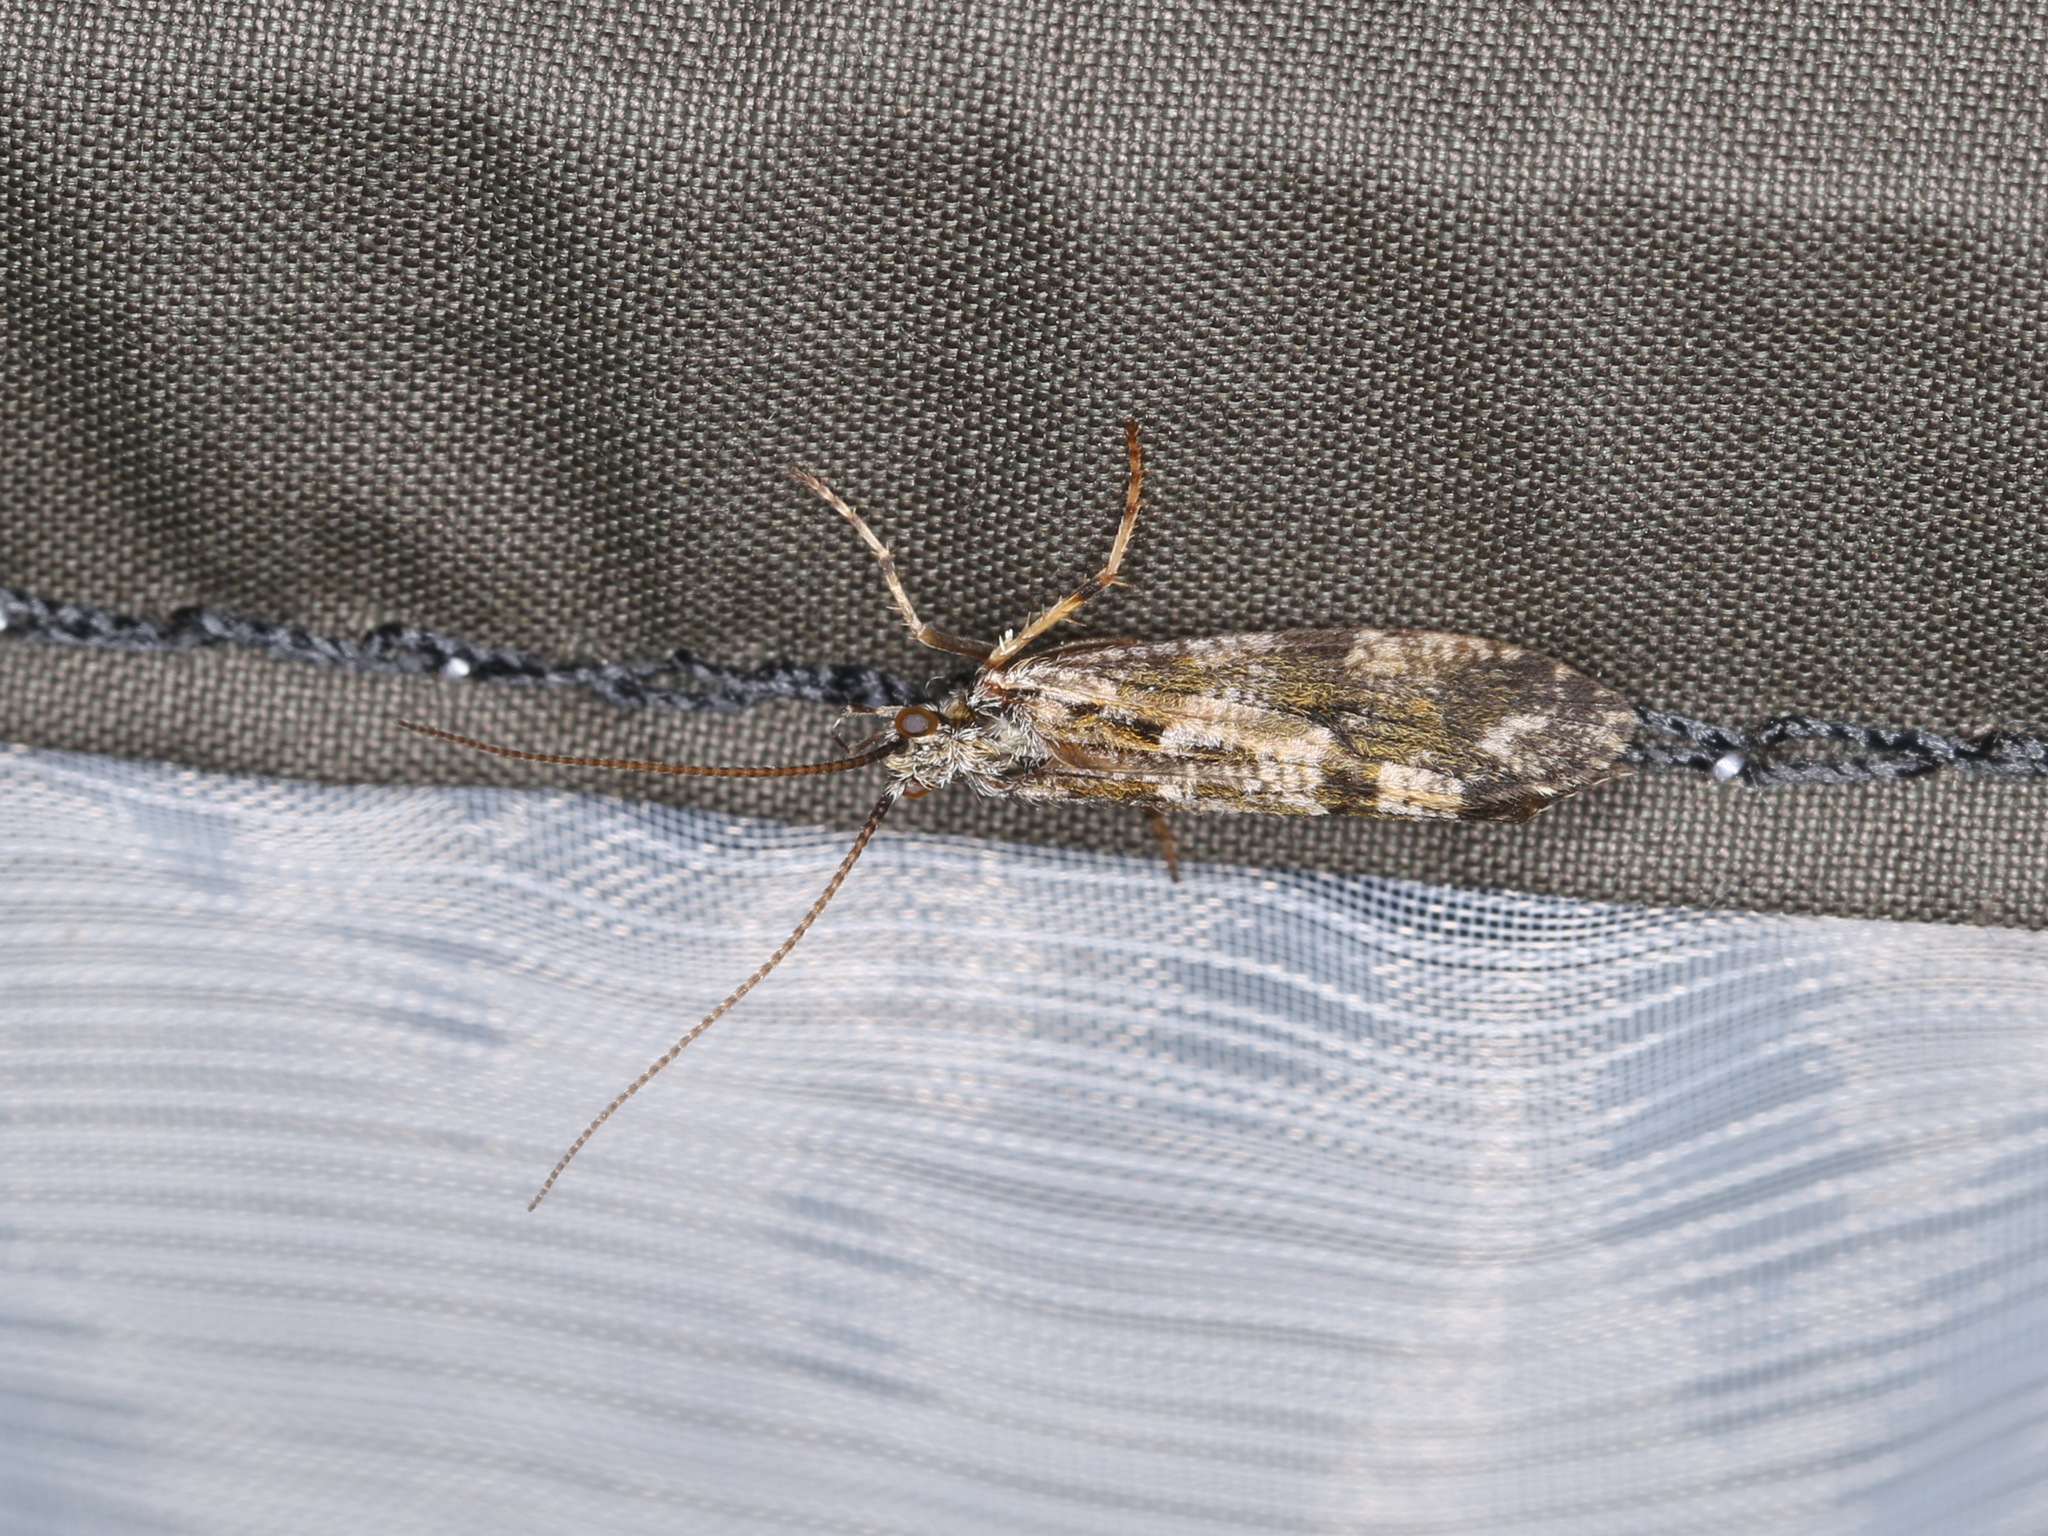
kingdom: Animalia
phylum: Arthropoda
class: Insecta
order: Trichoptera
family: Phryganeidae
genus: Trichostegia
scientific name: Trichostegia minor
